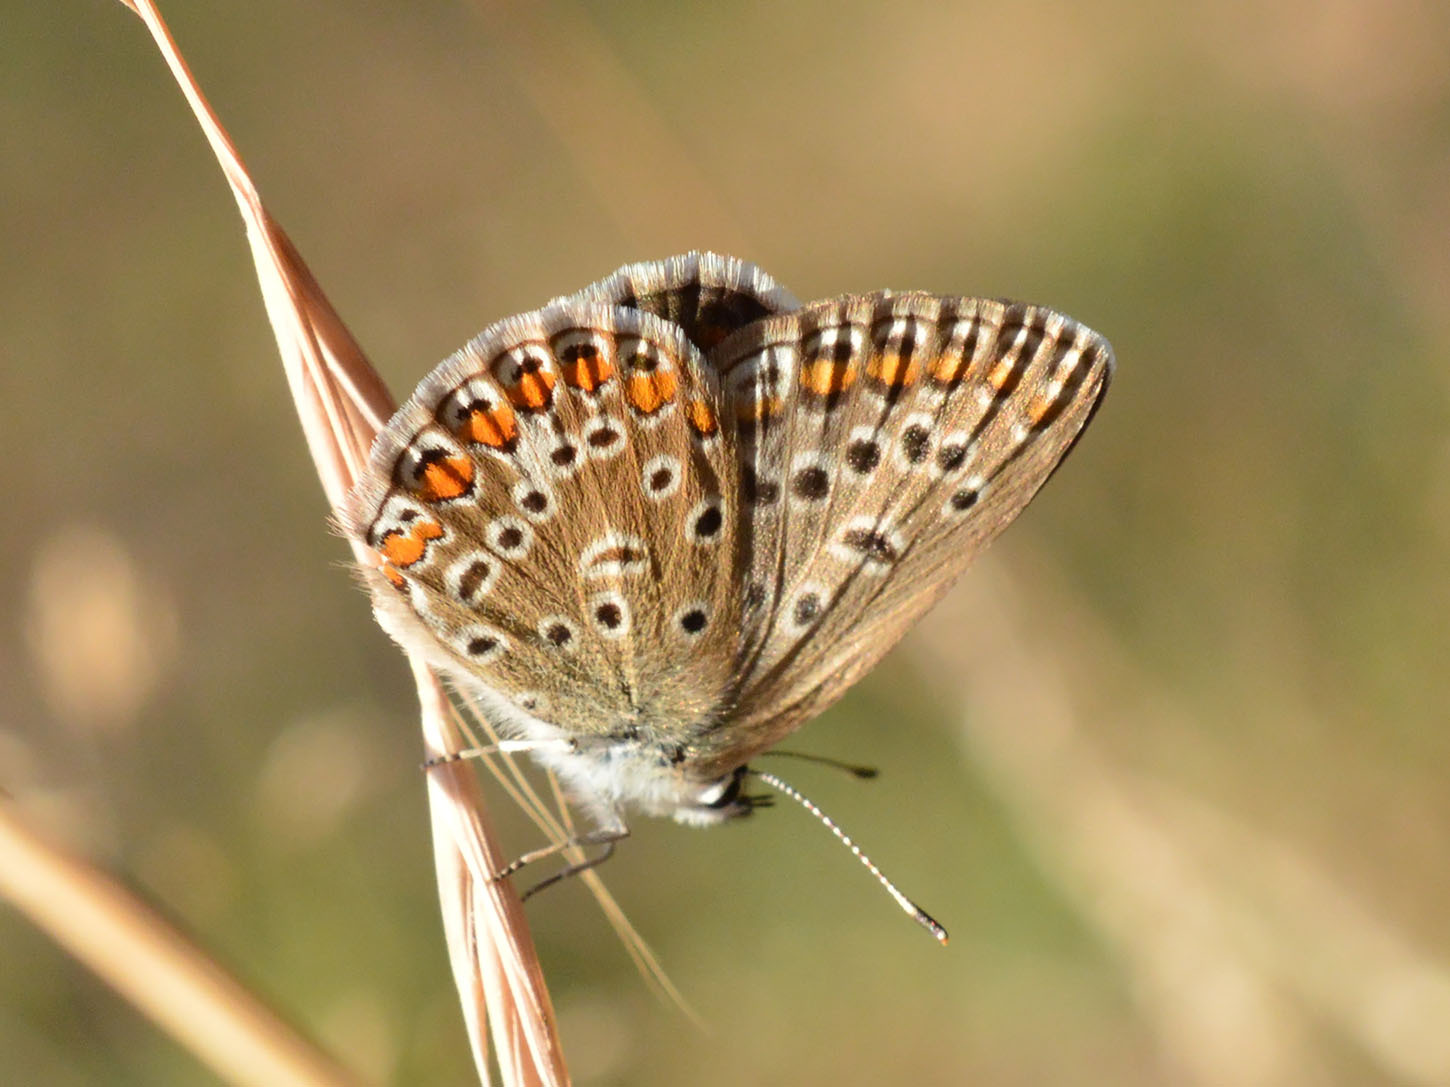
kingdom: Animalia
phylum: Arthropoda
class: Insecta
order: Lepidoptera
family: Lycaenidae
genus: Polyommatus
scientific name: Polyommatus icarus
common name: Common blue
